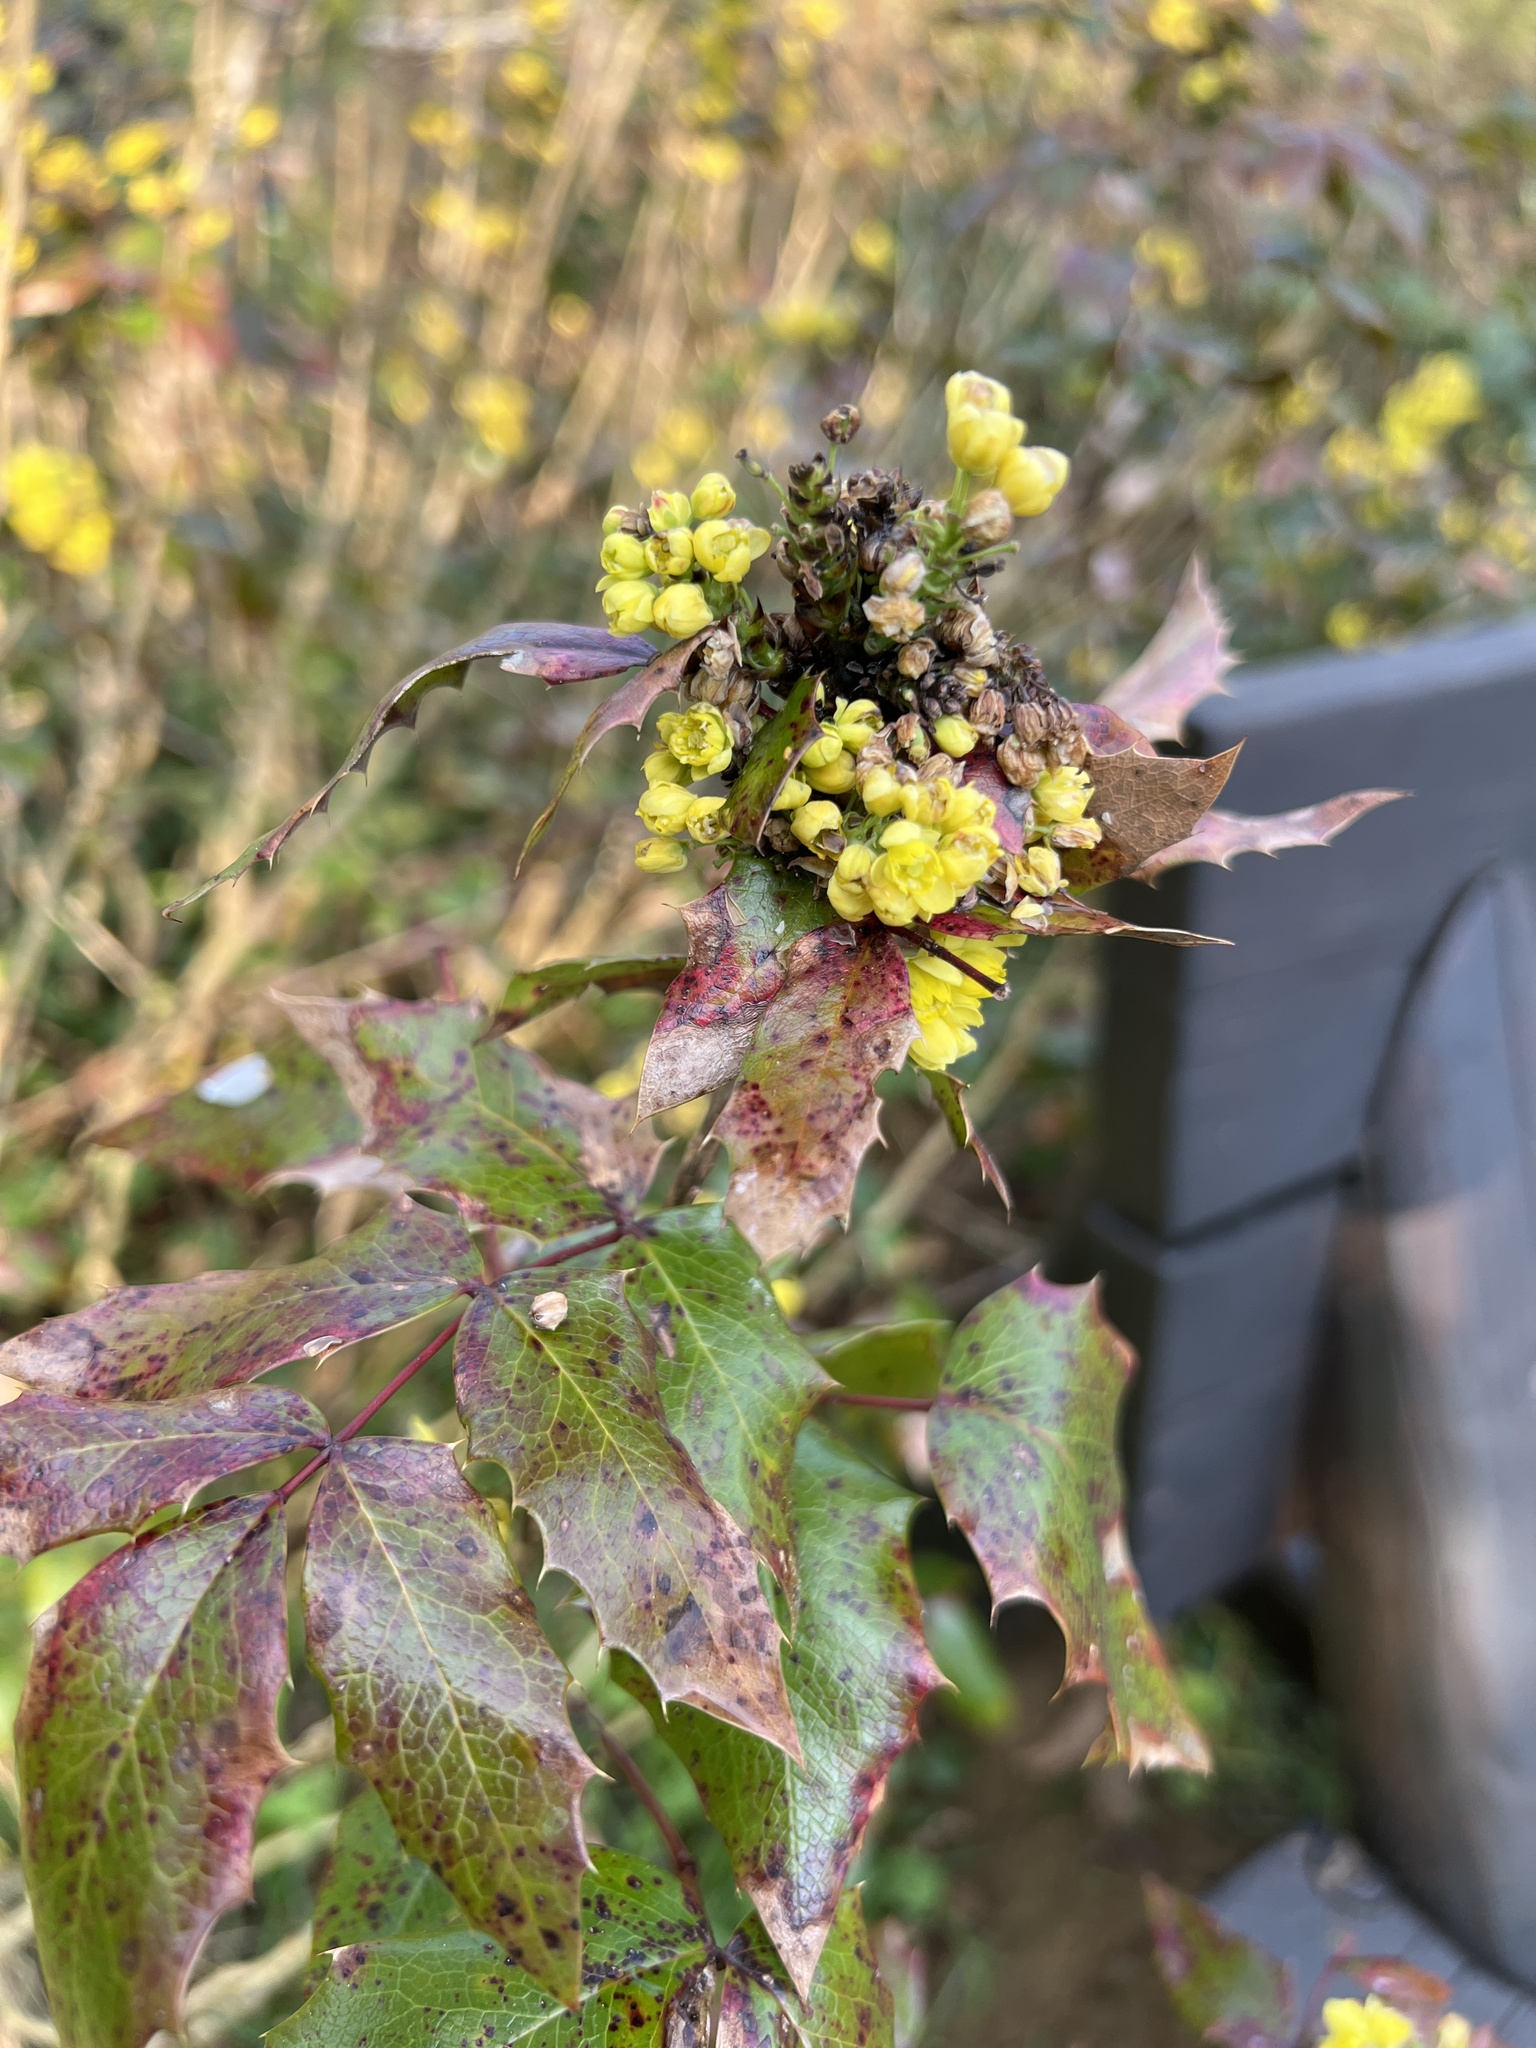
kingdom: Plantae
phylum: Tracheophyta
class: Magnoliopsida
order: Ranunculales
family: Berberidaceae
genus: Mahonia
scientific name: Mahonia aquifolium
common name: Oregon-grape
